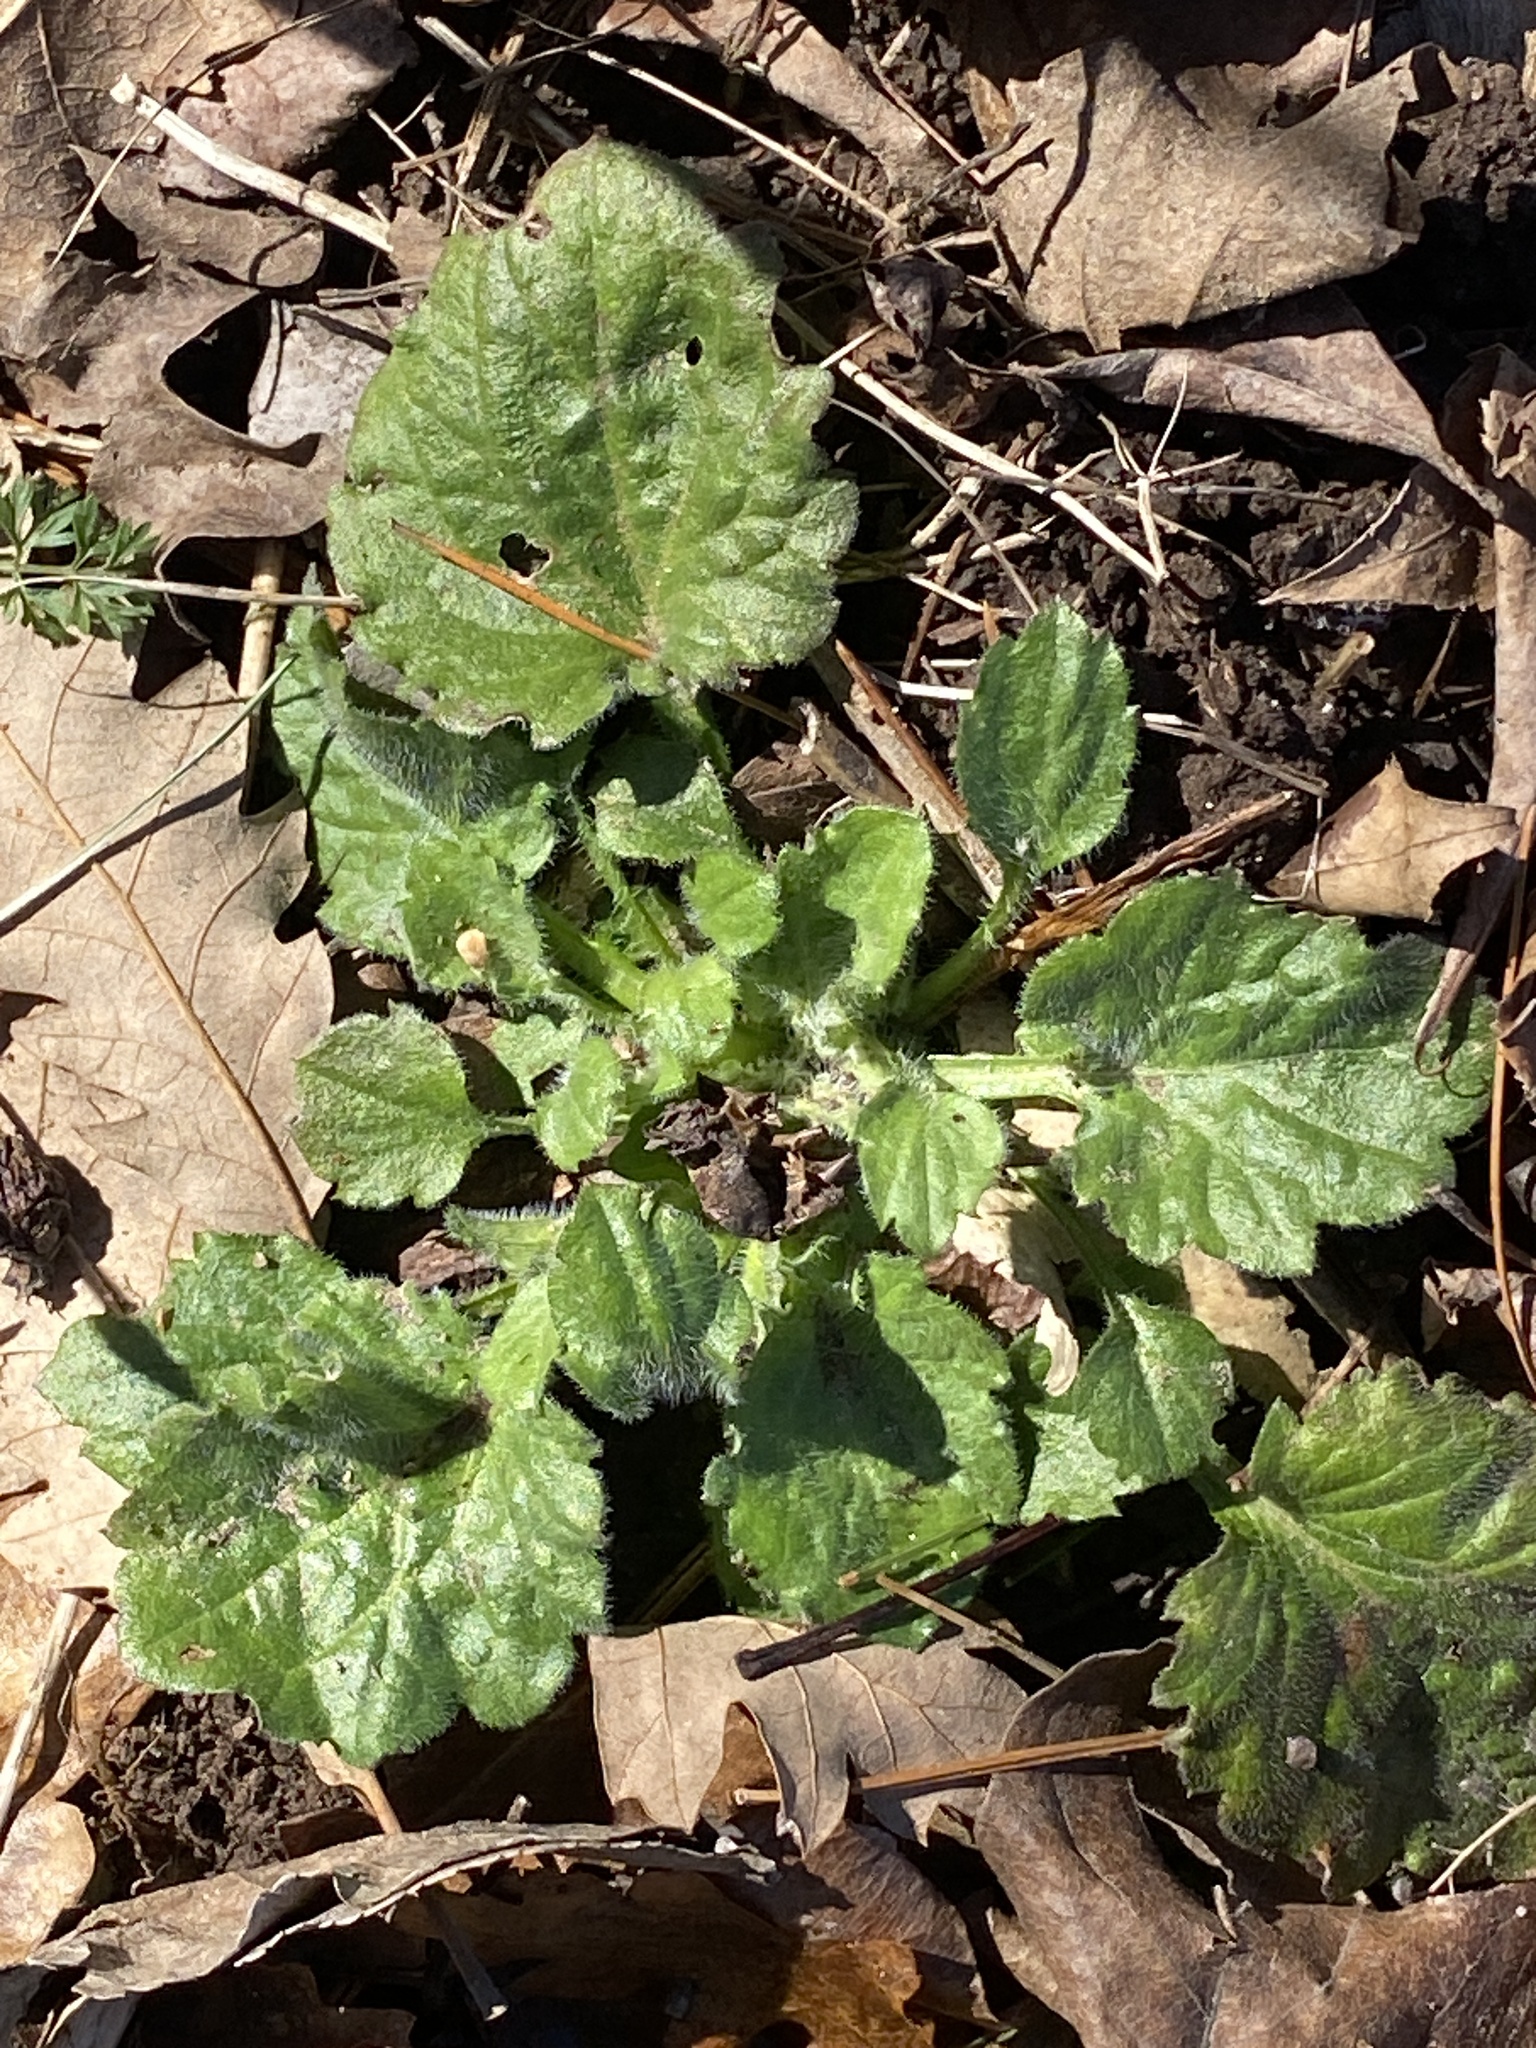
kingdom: Plantae
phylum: Tracheophyta
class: Magnoliopsida
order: Asterales
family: Asteraceae
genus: Erigeron
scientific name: Erigeron annuus
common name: Tall fleabane
